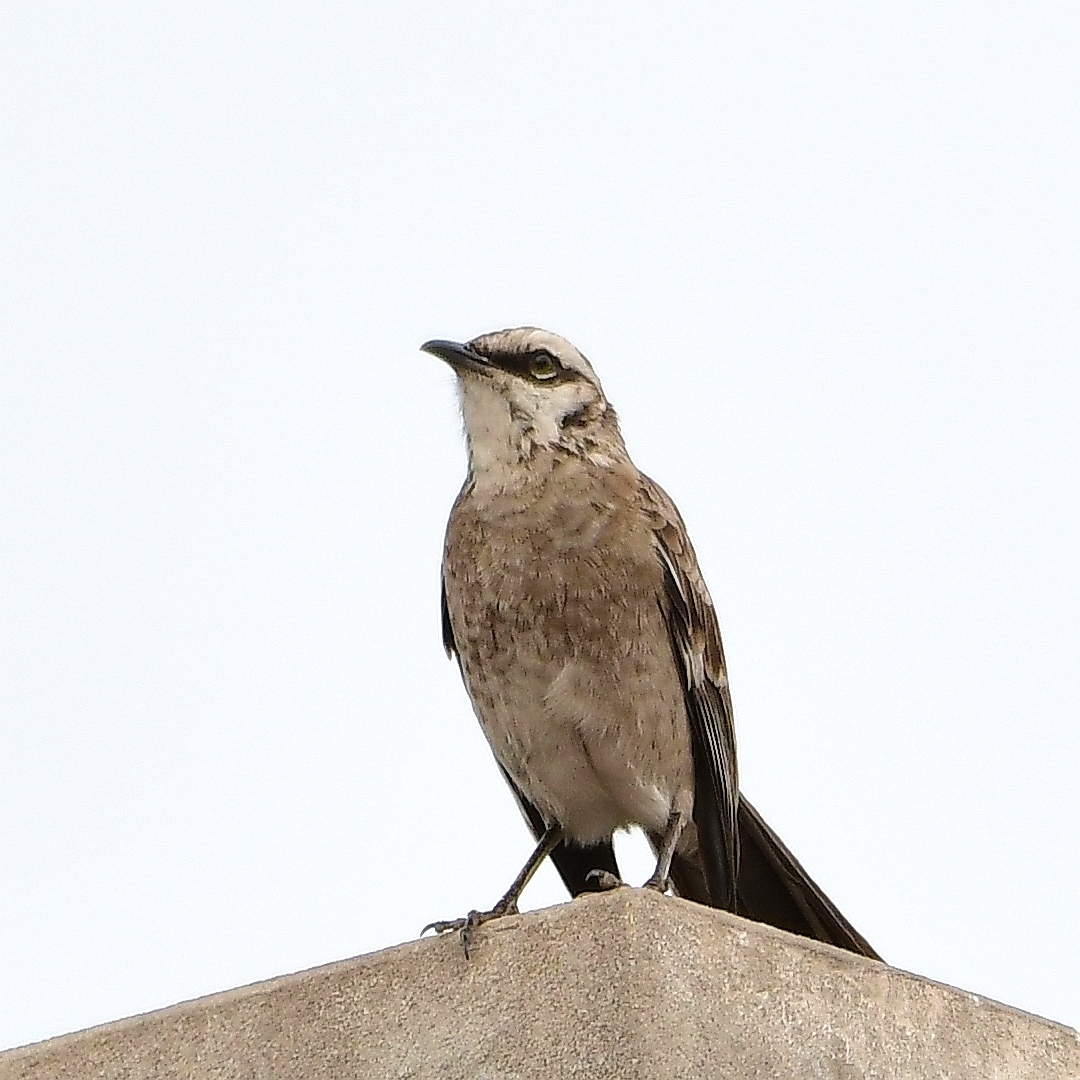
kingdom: Animalia
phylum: Chordata
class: Aves
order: Passeriformes
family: Mimidae
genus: Mimus
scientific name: Mimus longicaudatus
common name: Long-tailed mockingbird
